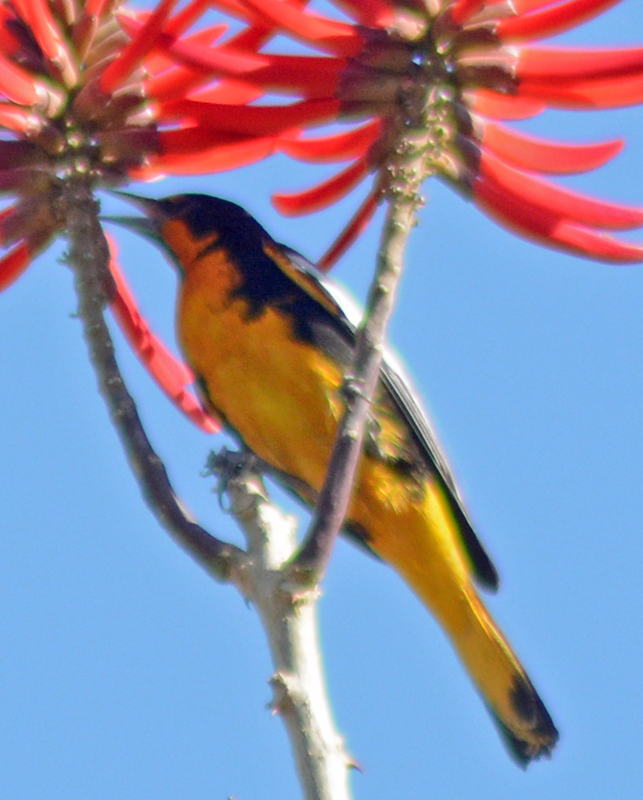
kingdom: Animalia
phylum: Chordata
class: Aves
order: Passeriformes
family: Icteridae
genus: Icterus
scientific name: Icterus abeillei
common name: Black-backed oriole
